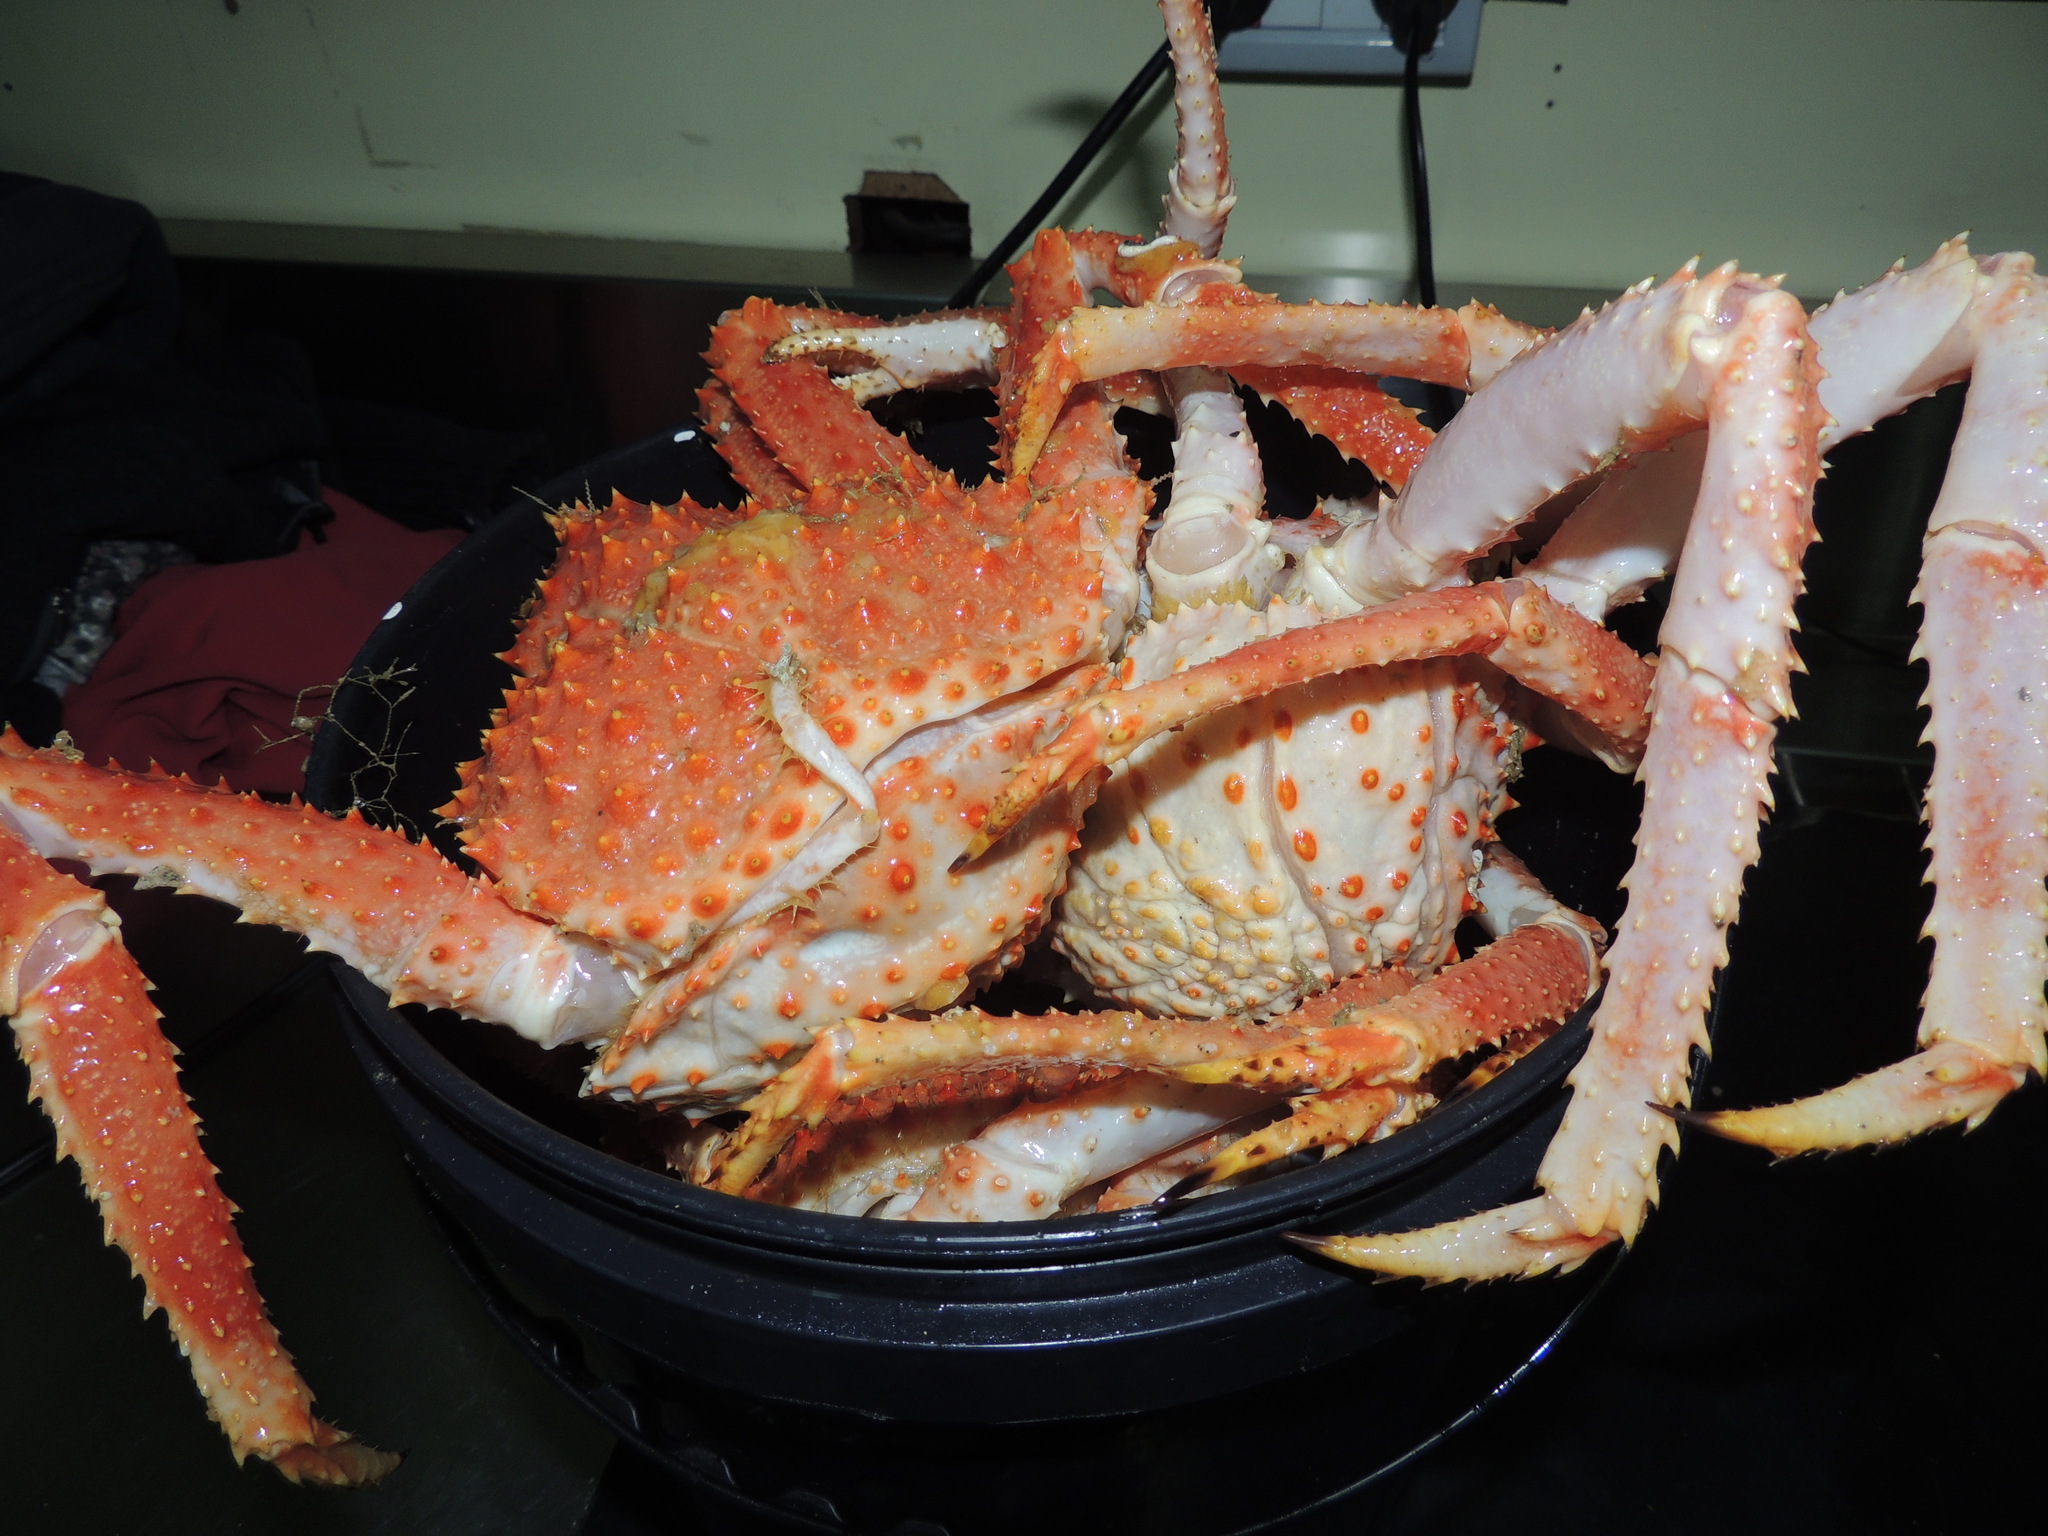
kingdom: Animalia
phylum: Arthropoda
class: Malacostraca
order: Decapoda
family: Lithodidae
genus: Lithodes
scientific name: Lithodes santolla
